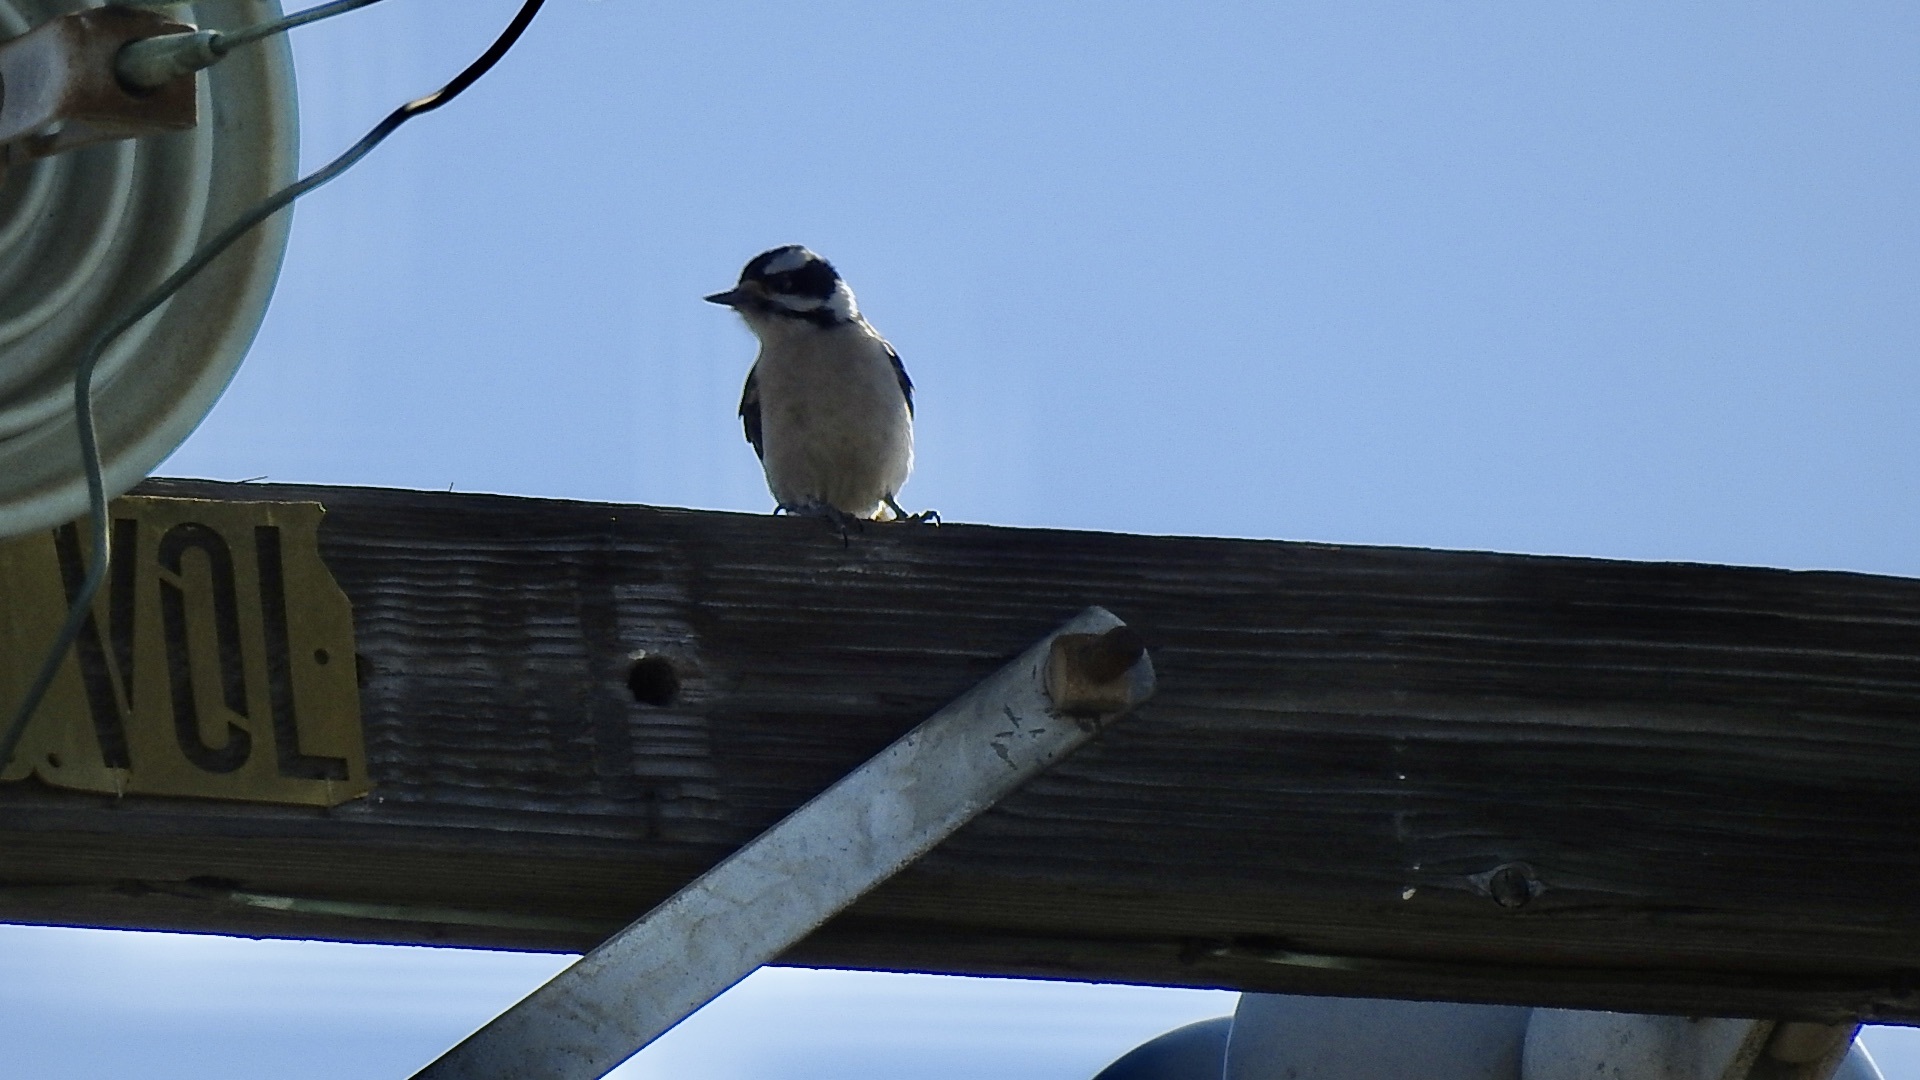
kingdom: Animalia
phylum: Chordata
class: Aves
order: Piciformes
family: Picidae
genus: Dryobates
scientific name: Dryobates pubescens
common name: Downy woodpecker
